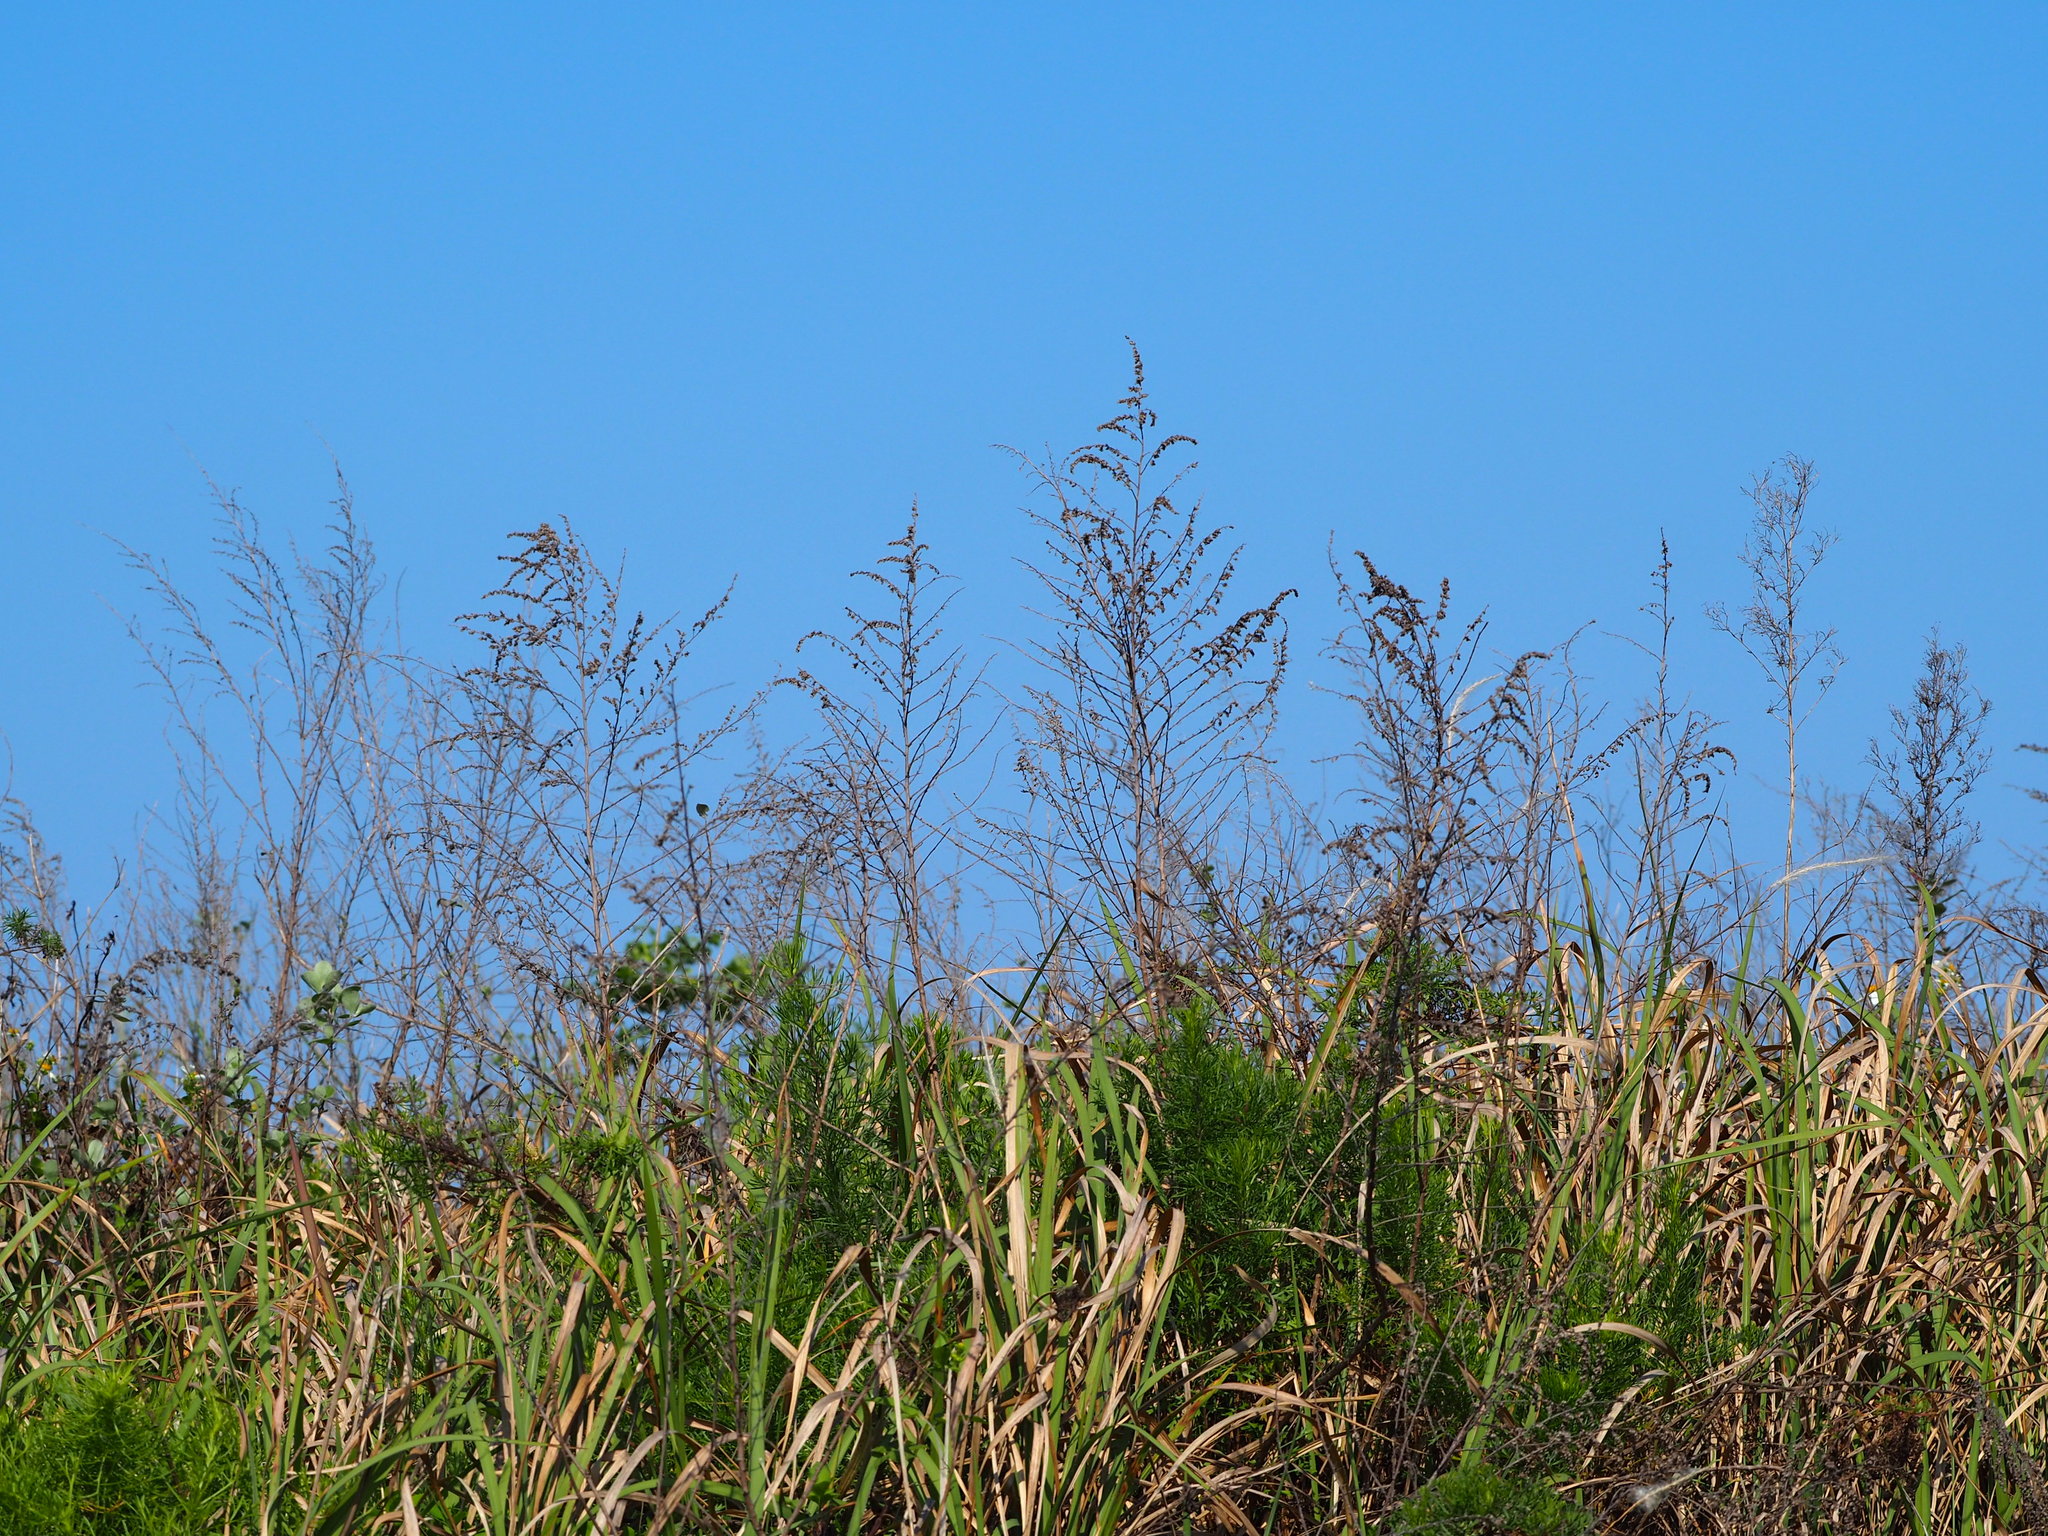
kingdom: Plantae
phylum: Tracheophyta
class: Magnoliopsida
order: Asterales
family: Asteraceae
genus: Artemisia
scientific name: Artemisia capillaris
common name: Yin-chen wormwood
